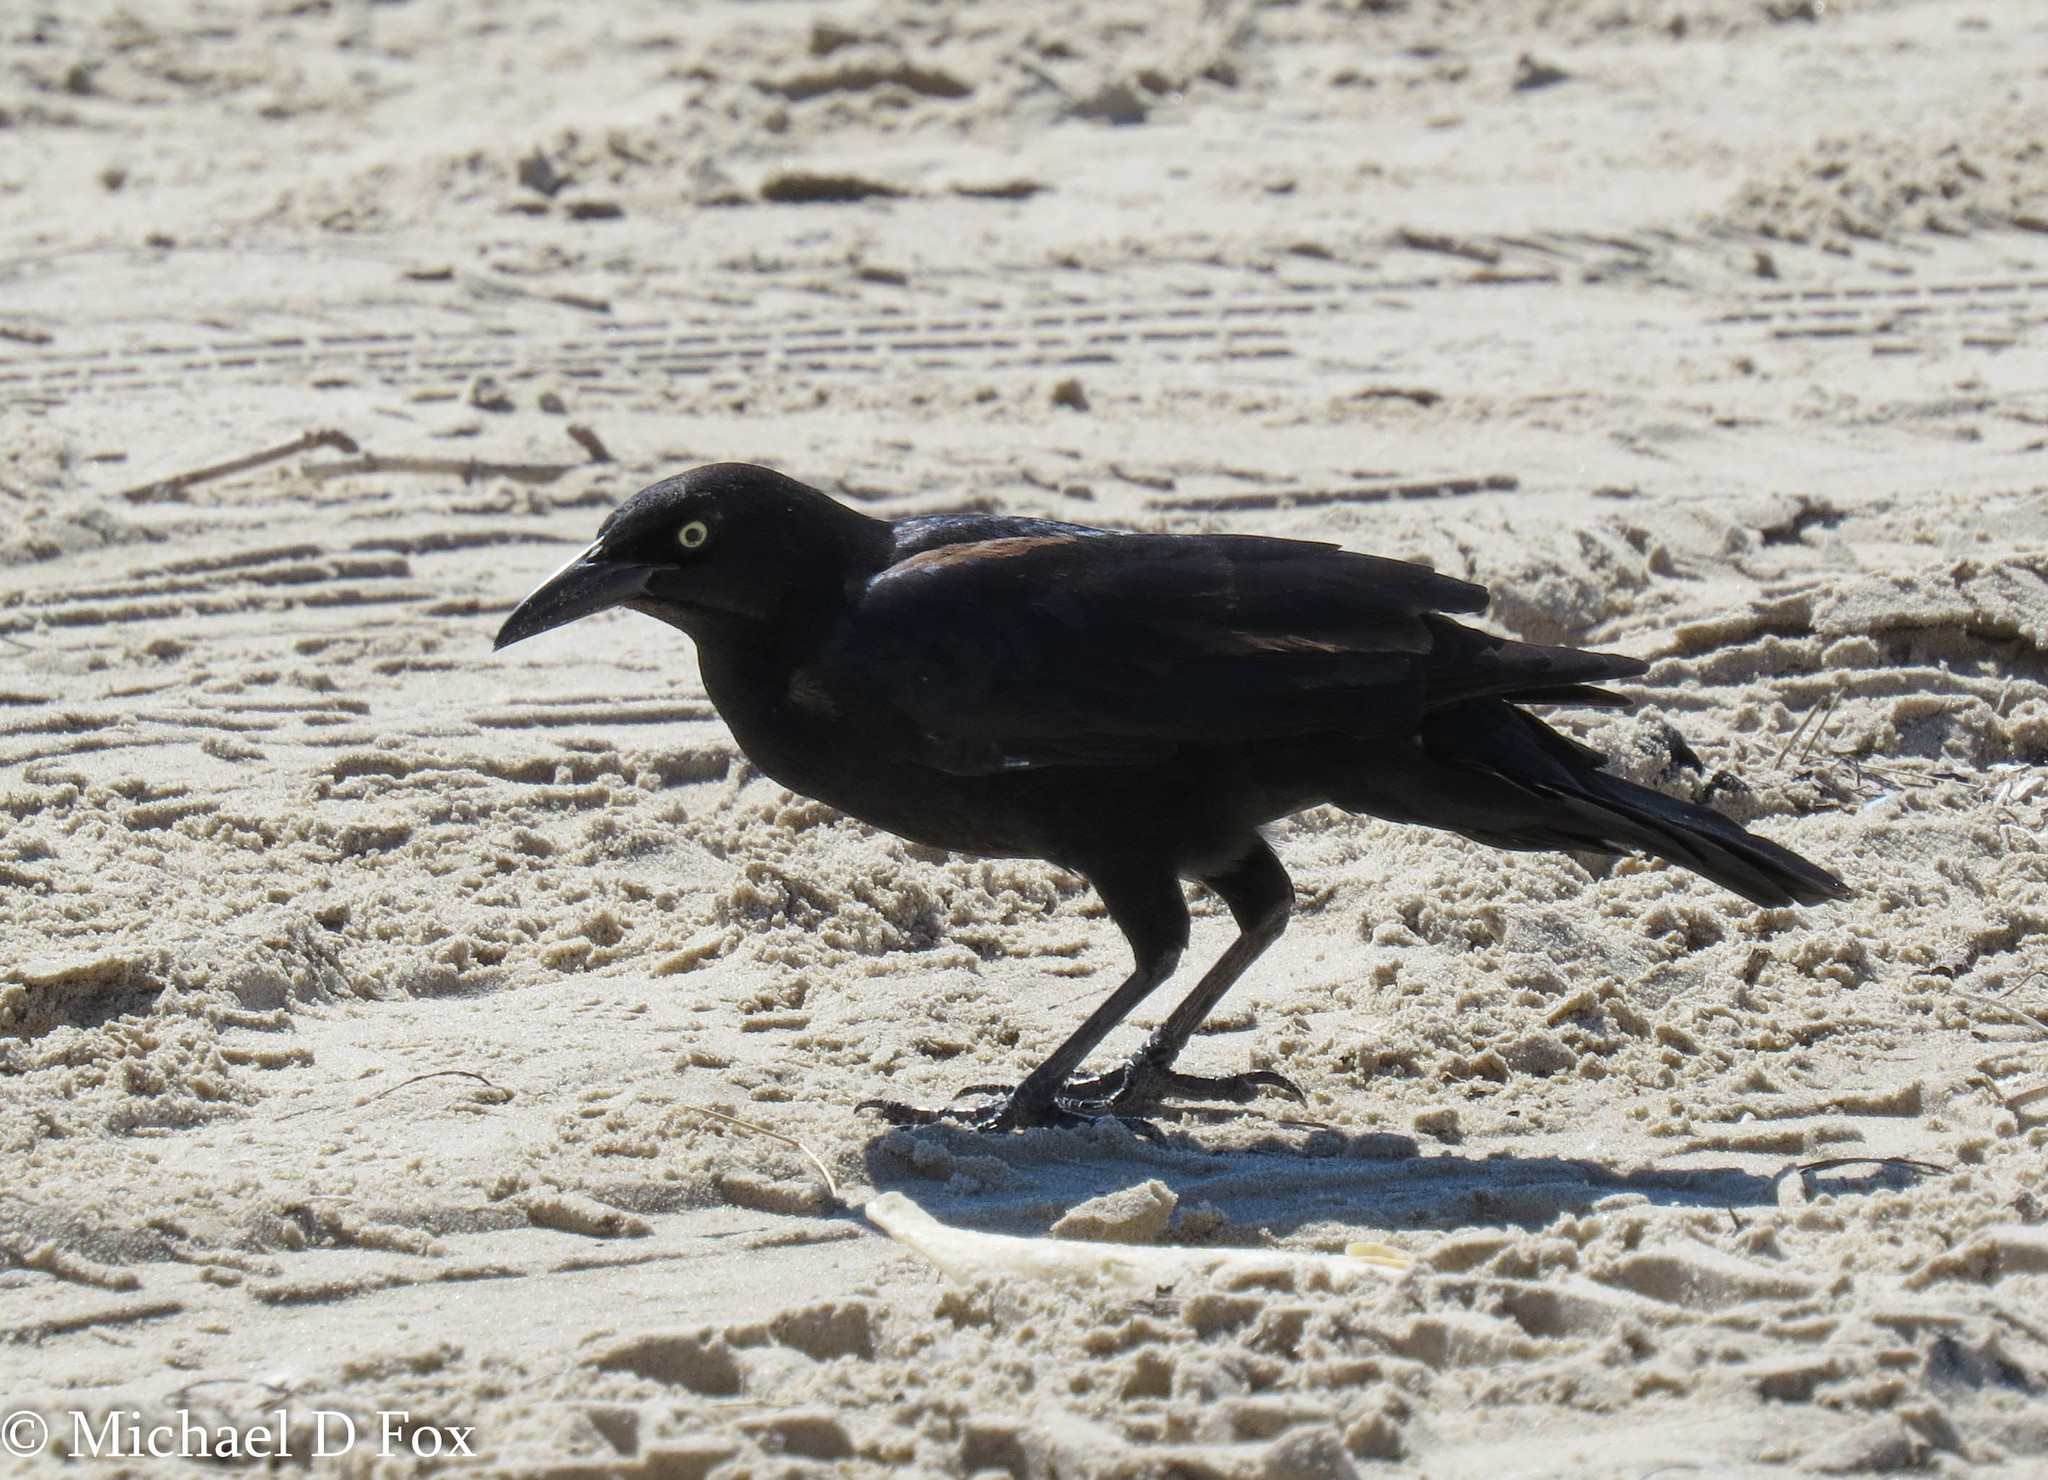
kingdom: Animalia
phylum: Chordata
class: Aves
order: Passeriformes
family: Icteridae
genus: Quiscalus
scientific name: Quiscalus mexicanus
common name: Great-tailed grackle
